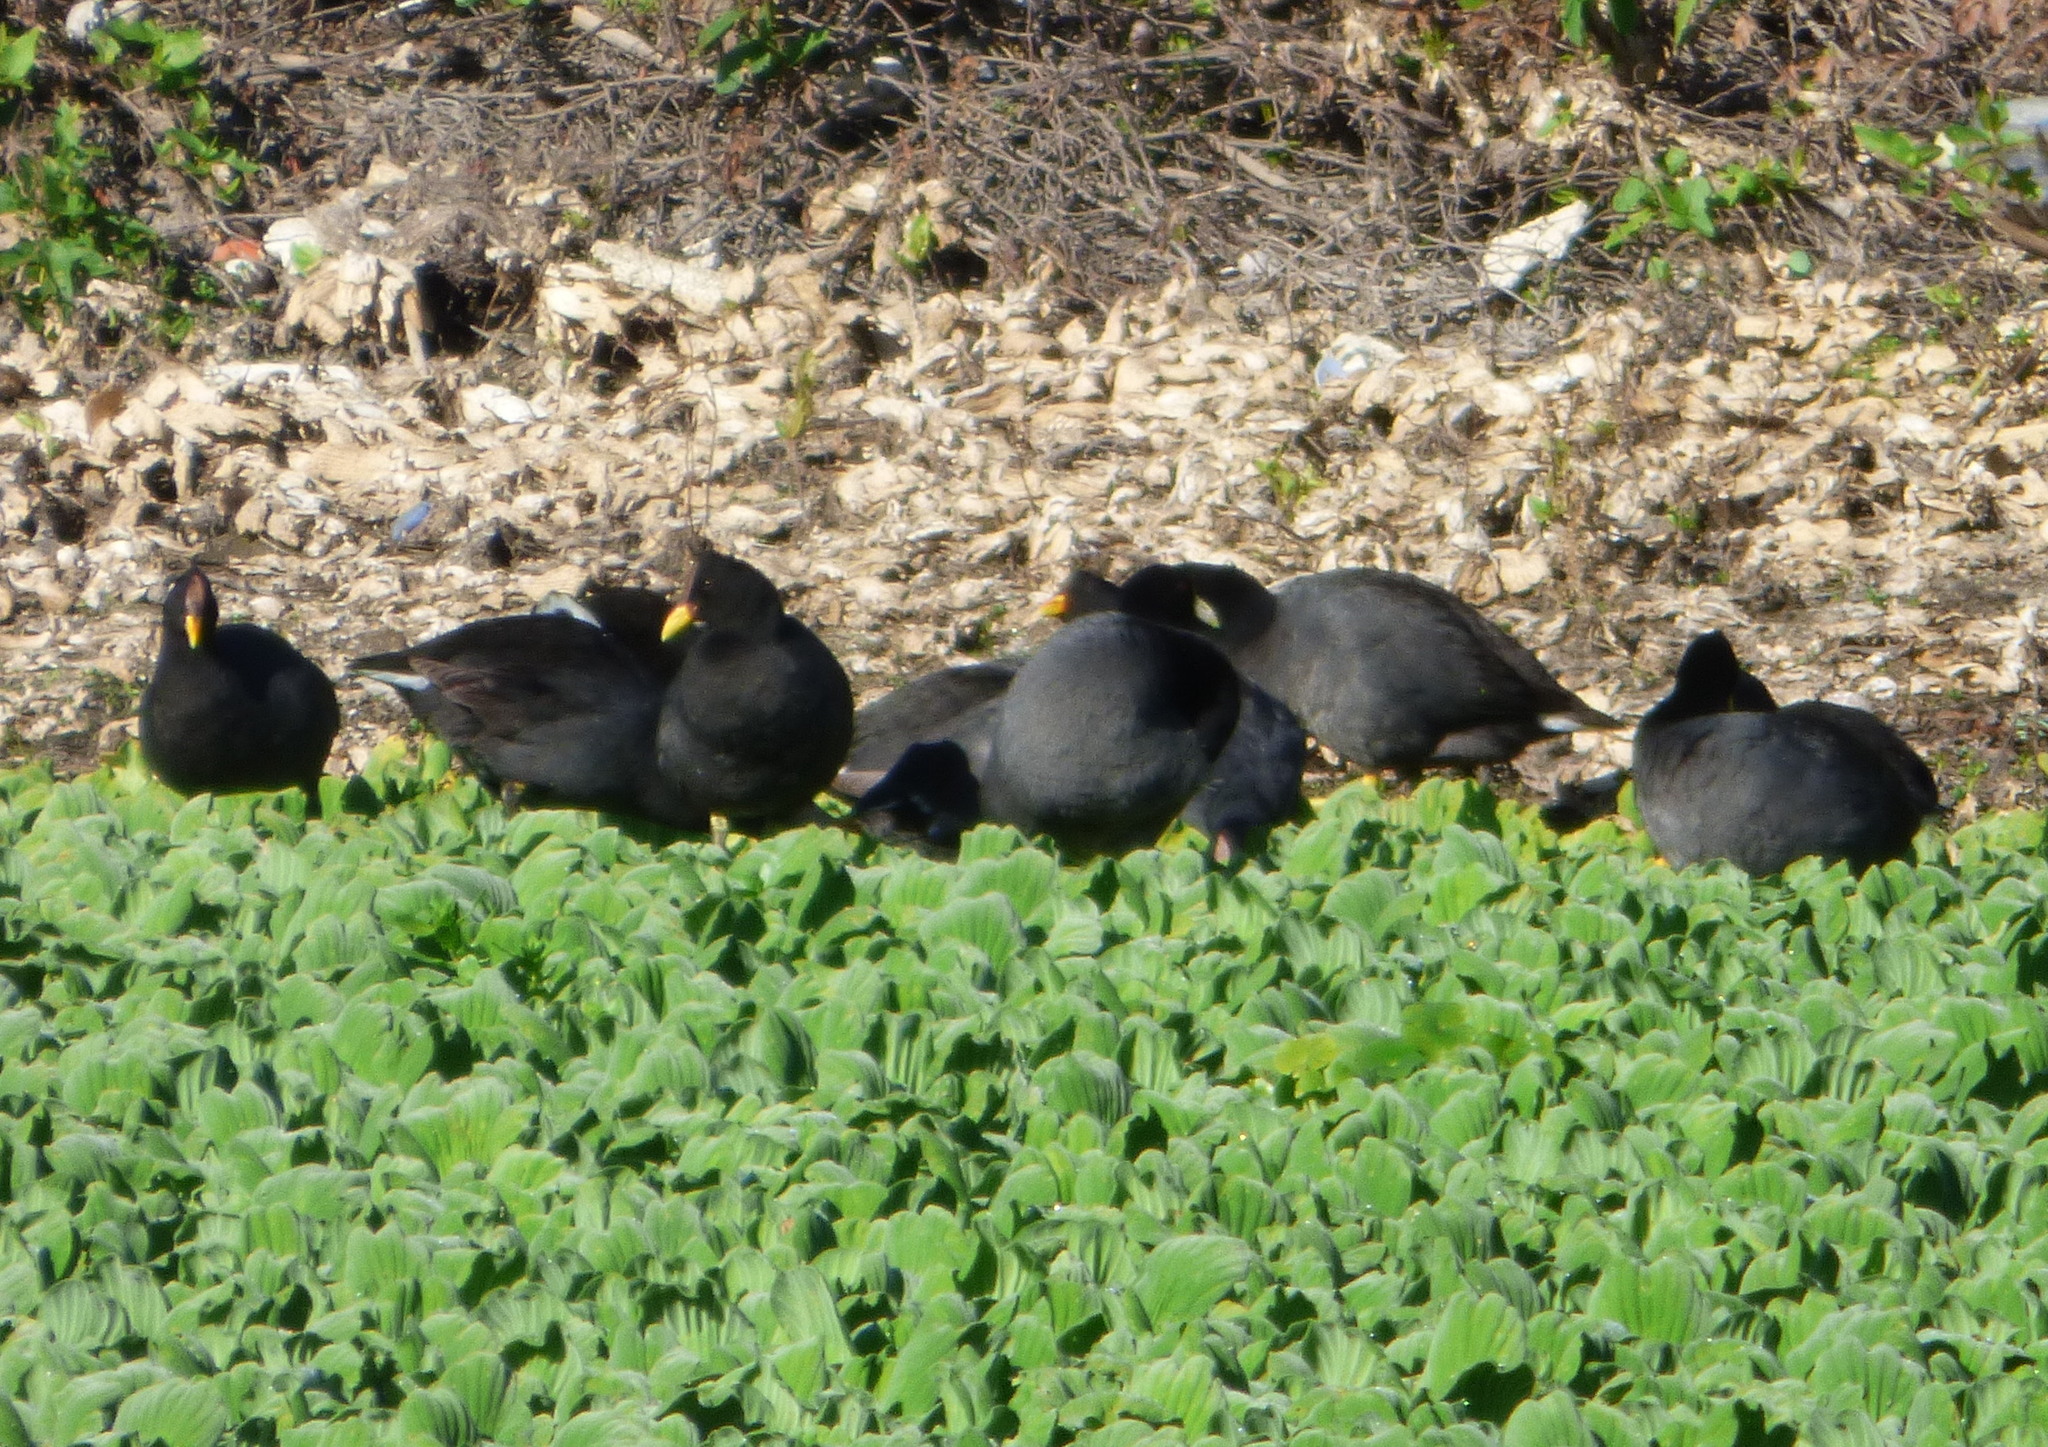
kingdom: Animalia
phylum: Chordata
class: Aves
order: Gruiformes
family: Rallidae
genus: Fulica
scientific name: Fulica rufifrons
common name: Red-fronted coot
